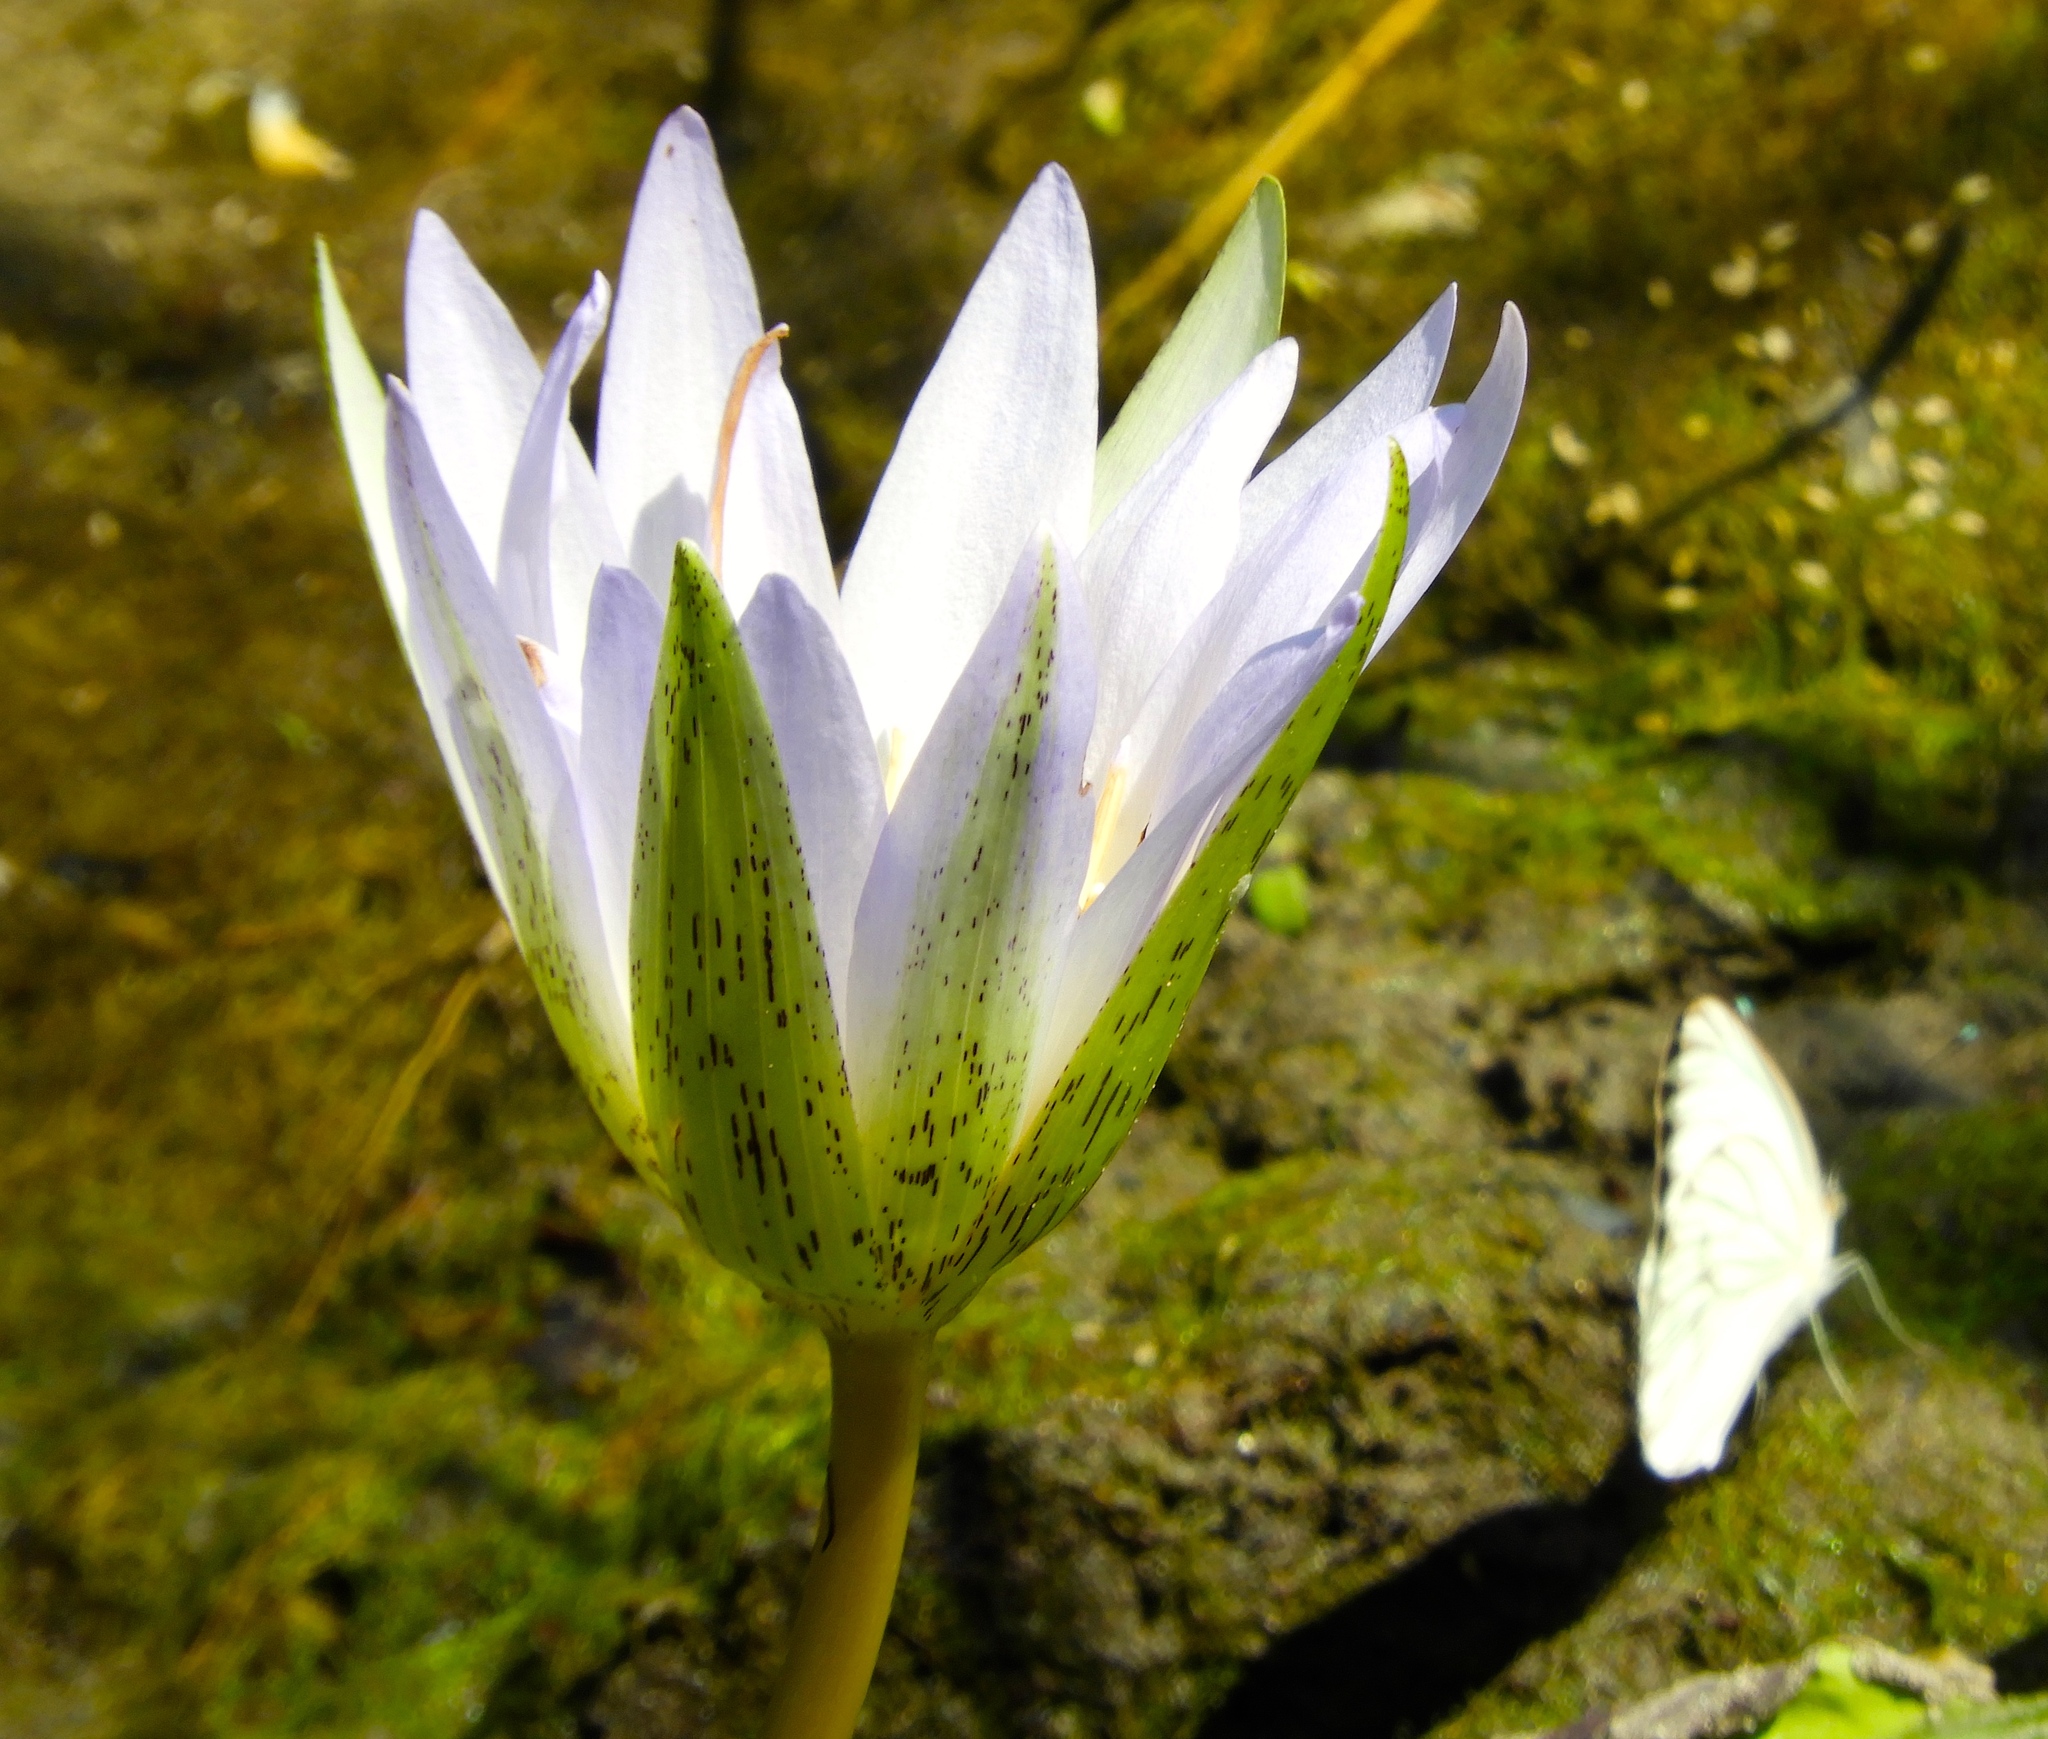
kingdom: Plantae
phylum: Tracheophyta
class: Magnoliopsida
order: Nymphaeales
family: Nymphaeaceae
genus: Nymphaea
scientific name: Nymphaea elegans
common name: Blue water-lily
